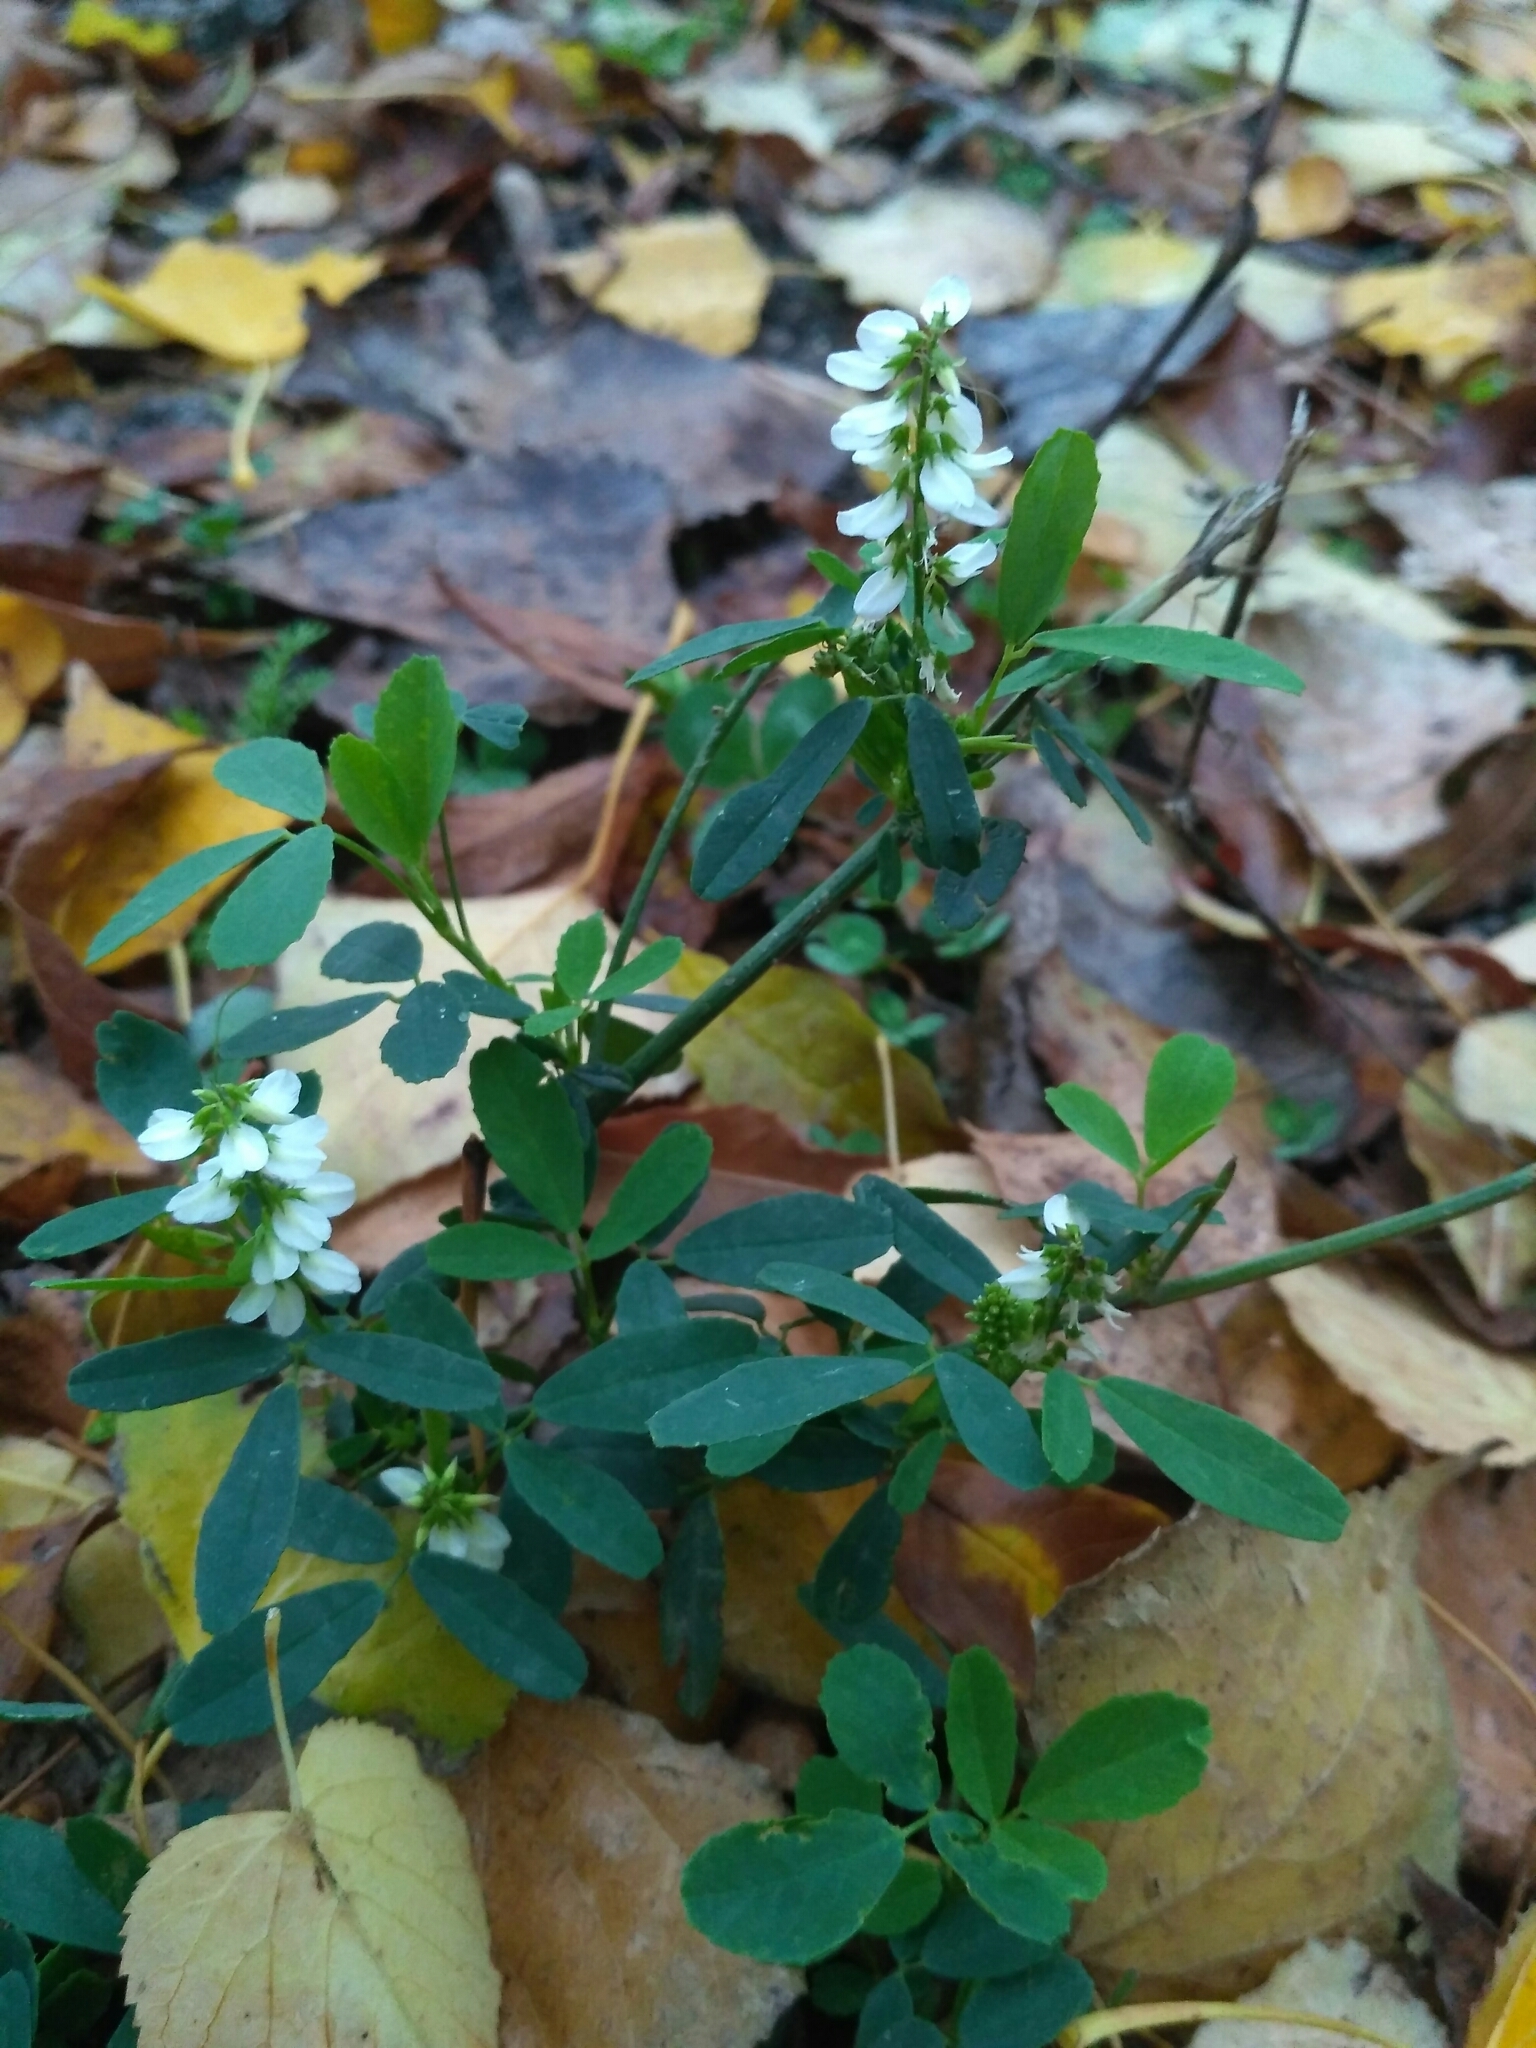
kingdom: Plantae
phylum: Tracheophyta
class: Magnoliopsida
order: Fabales
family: Fabaceae
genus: Melilotus
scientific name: Melilotus albus
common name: White melilot
